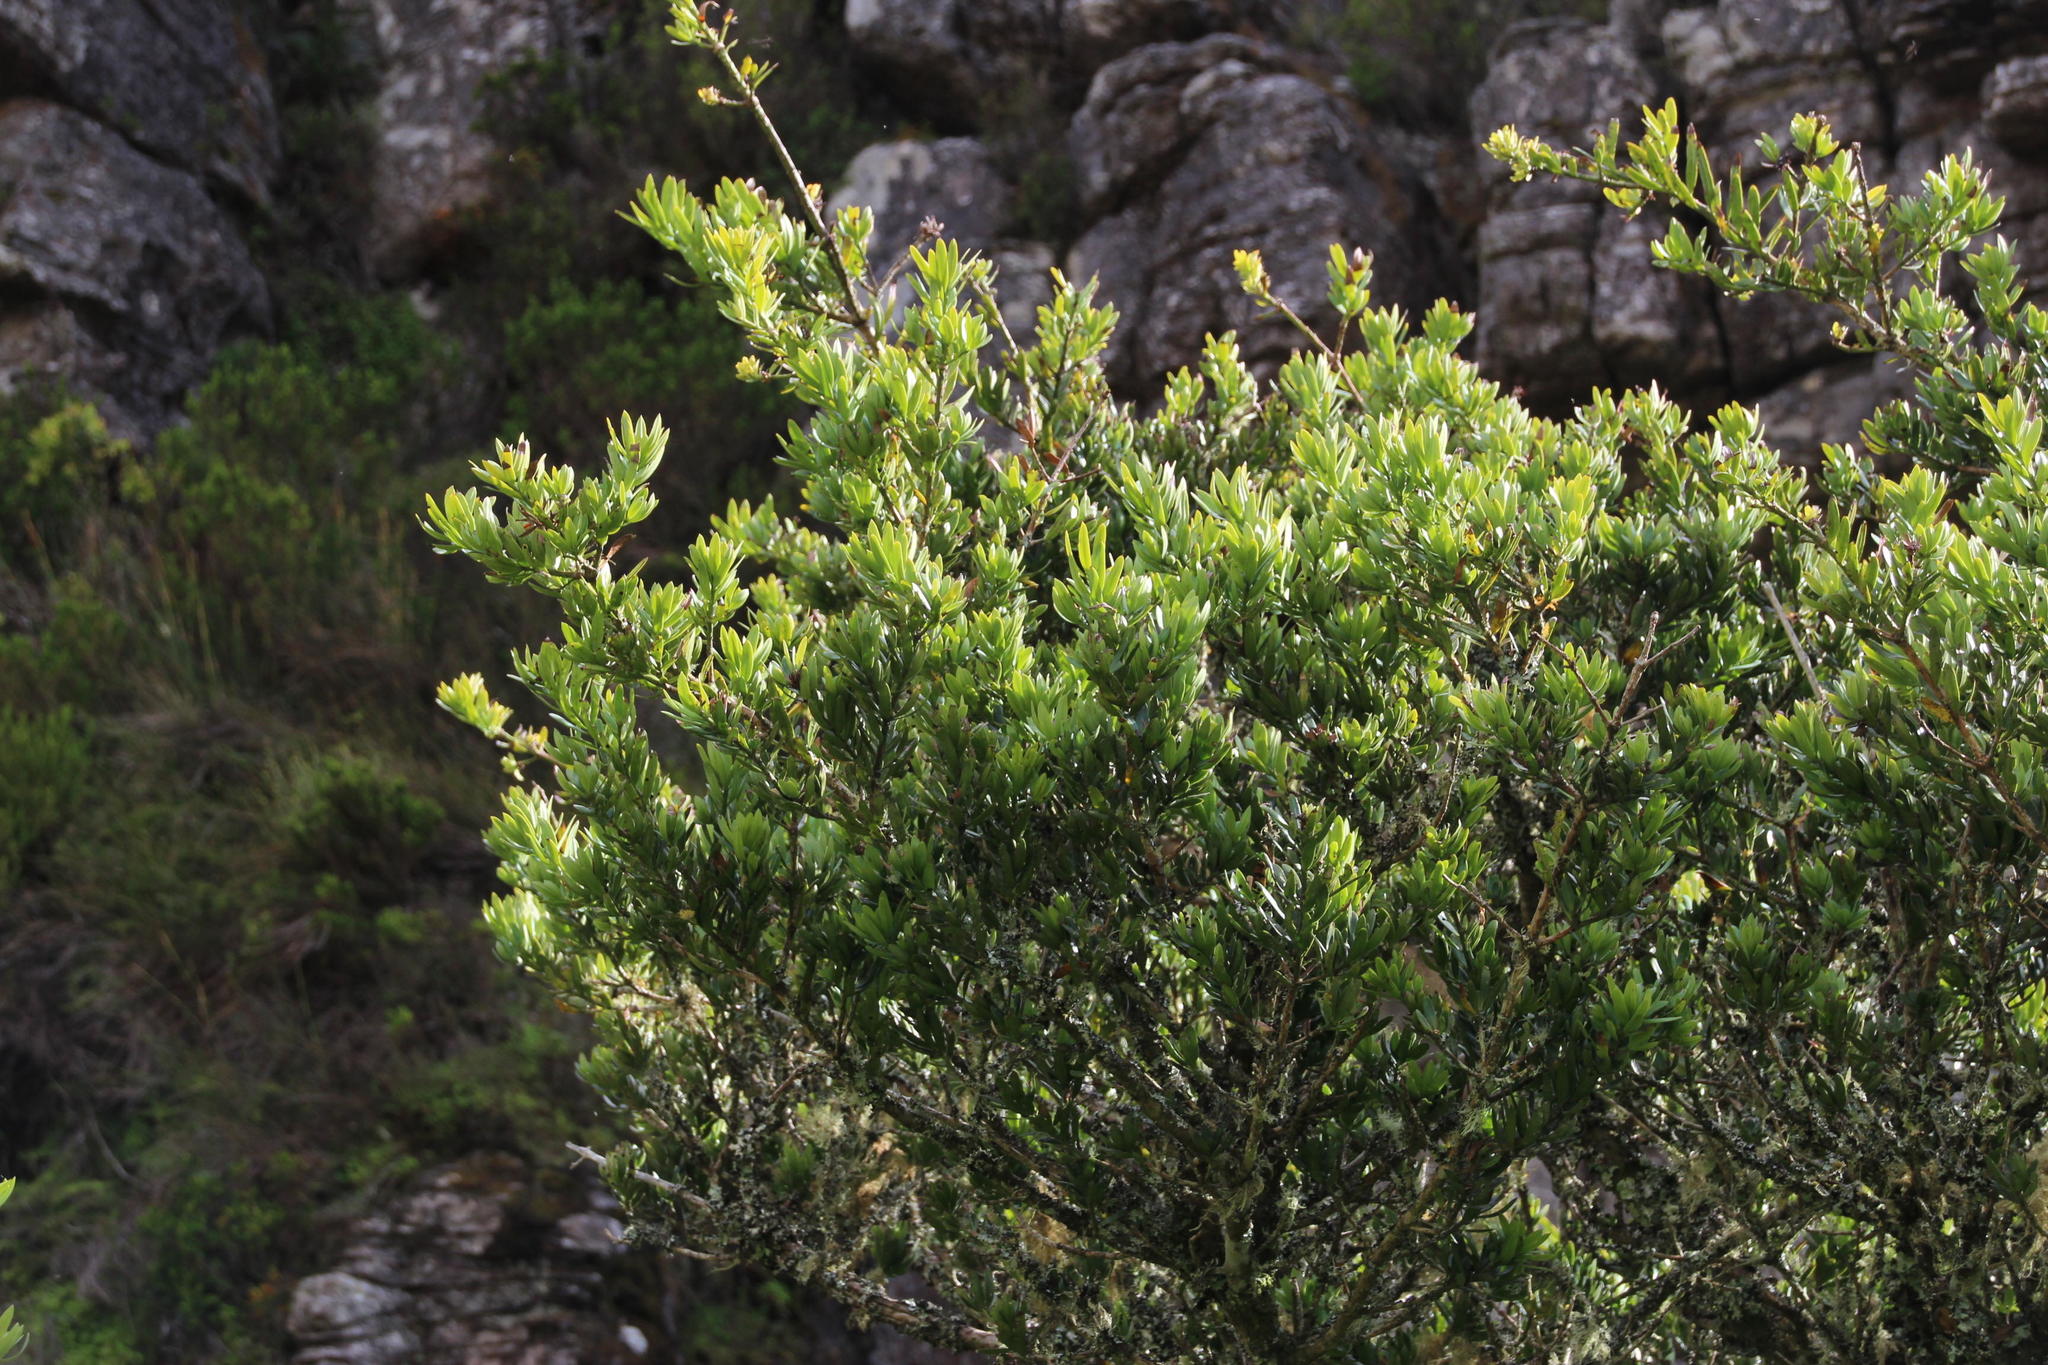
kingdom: Plantae
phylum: Tracheophyta
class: Pinopsida
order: Pinales
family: Podocarpaceae
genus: Podocarpus
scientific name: Podocarpus latifolius
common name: True yellowwood
